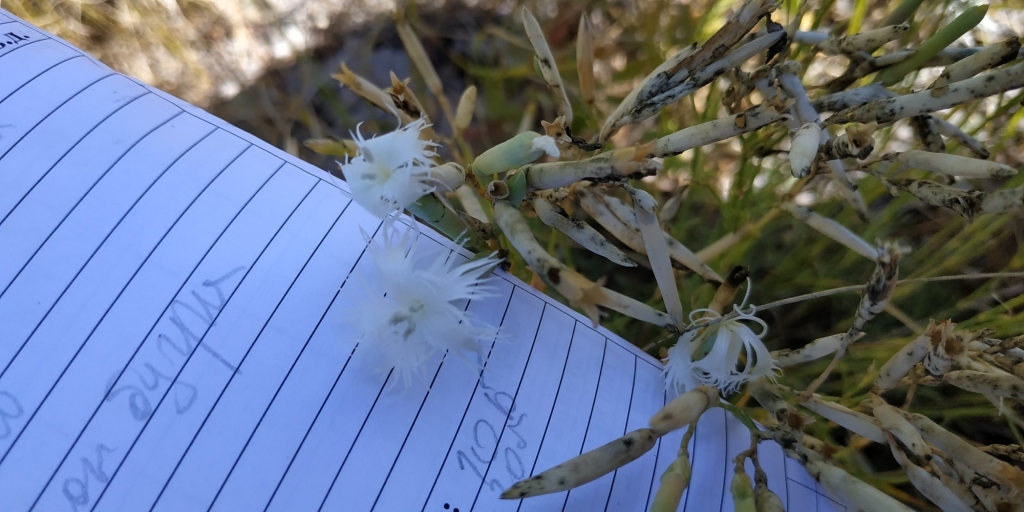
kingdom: Plantae
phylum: Tracheophyta
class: Magnoliopsida
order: Caryophyllales
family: Caryophyllaceae
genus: Dianthus
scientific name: Dianthus acicularis
